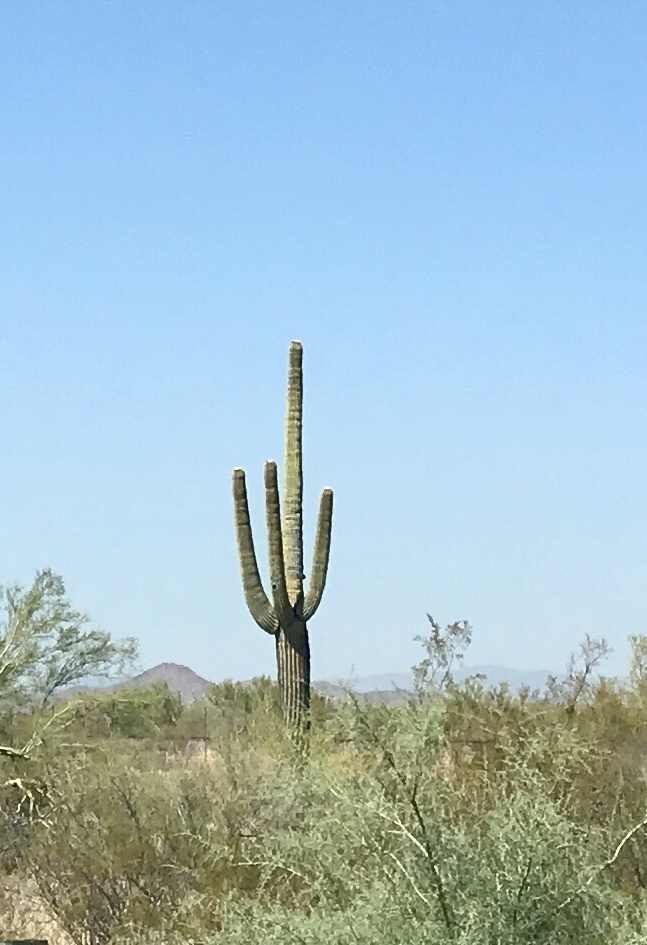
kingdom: Plantae
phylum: Tracheophyta
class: Magnoliopsida
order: Caryophyllales
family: Cactaceae
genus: Carnegiea
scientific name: Carnegiea gigantea
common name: Saguaro
